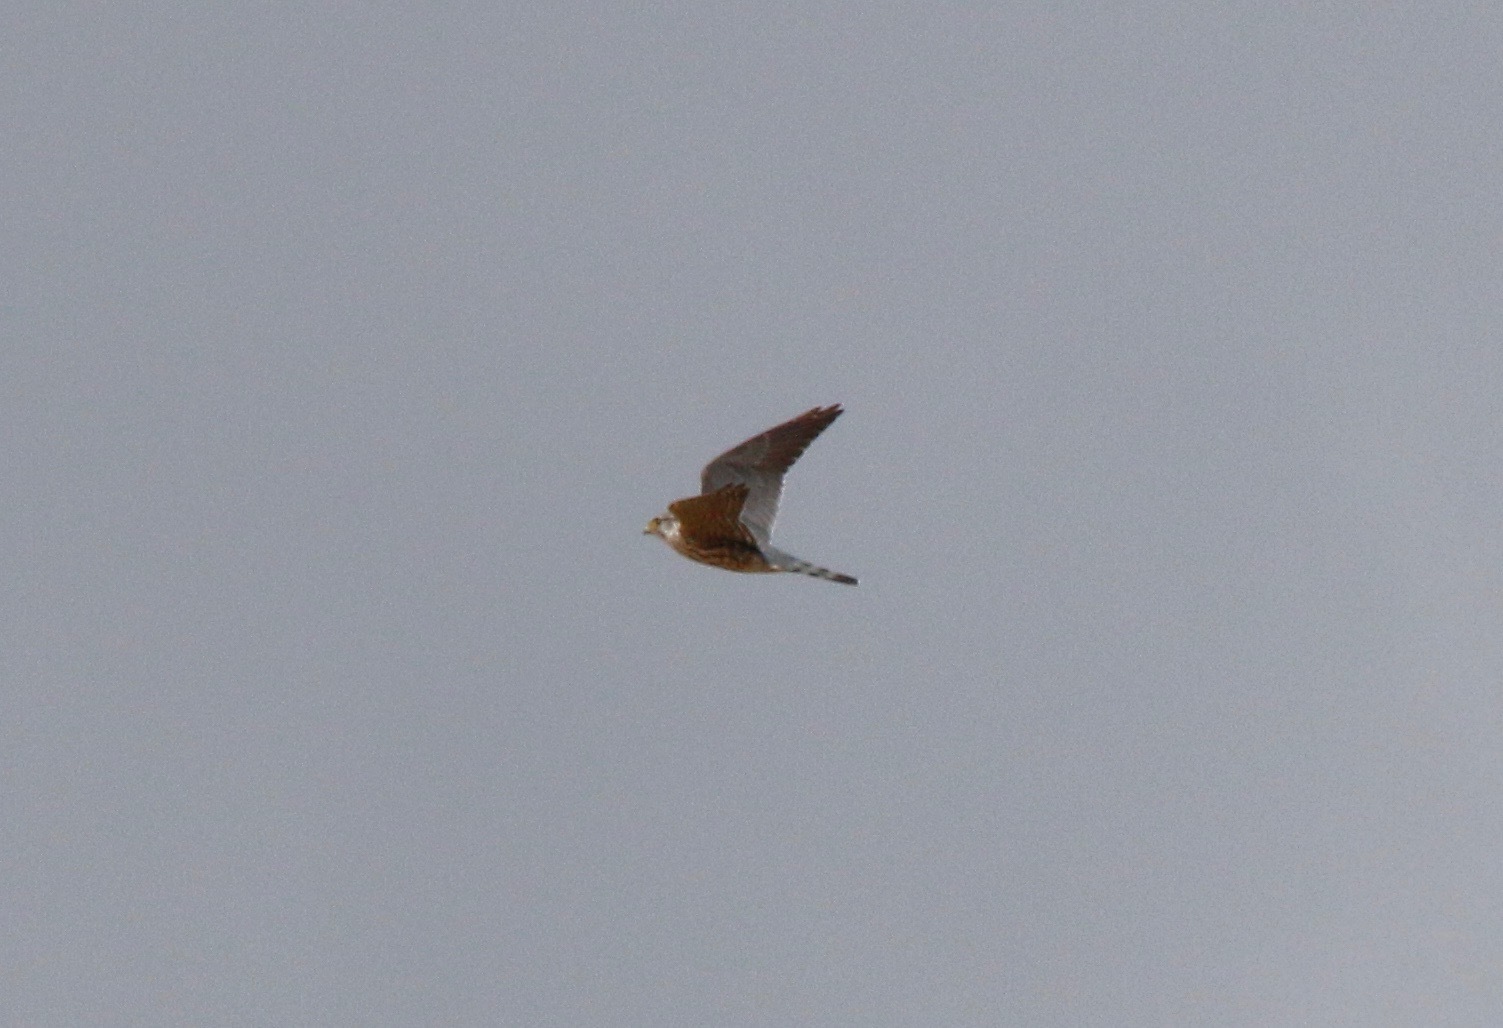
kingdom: Animalia
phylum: Chordata
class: Aves
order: Falconiformes
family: Falconidae
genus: Falco
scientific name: Falco columbarius
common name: Merlin
